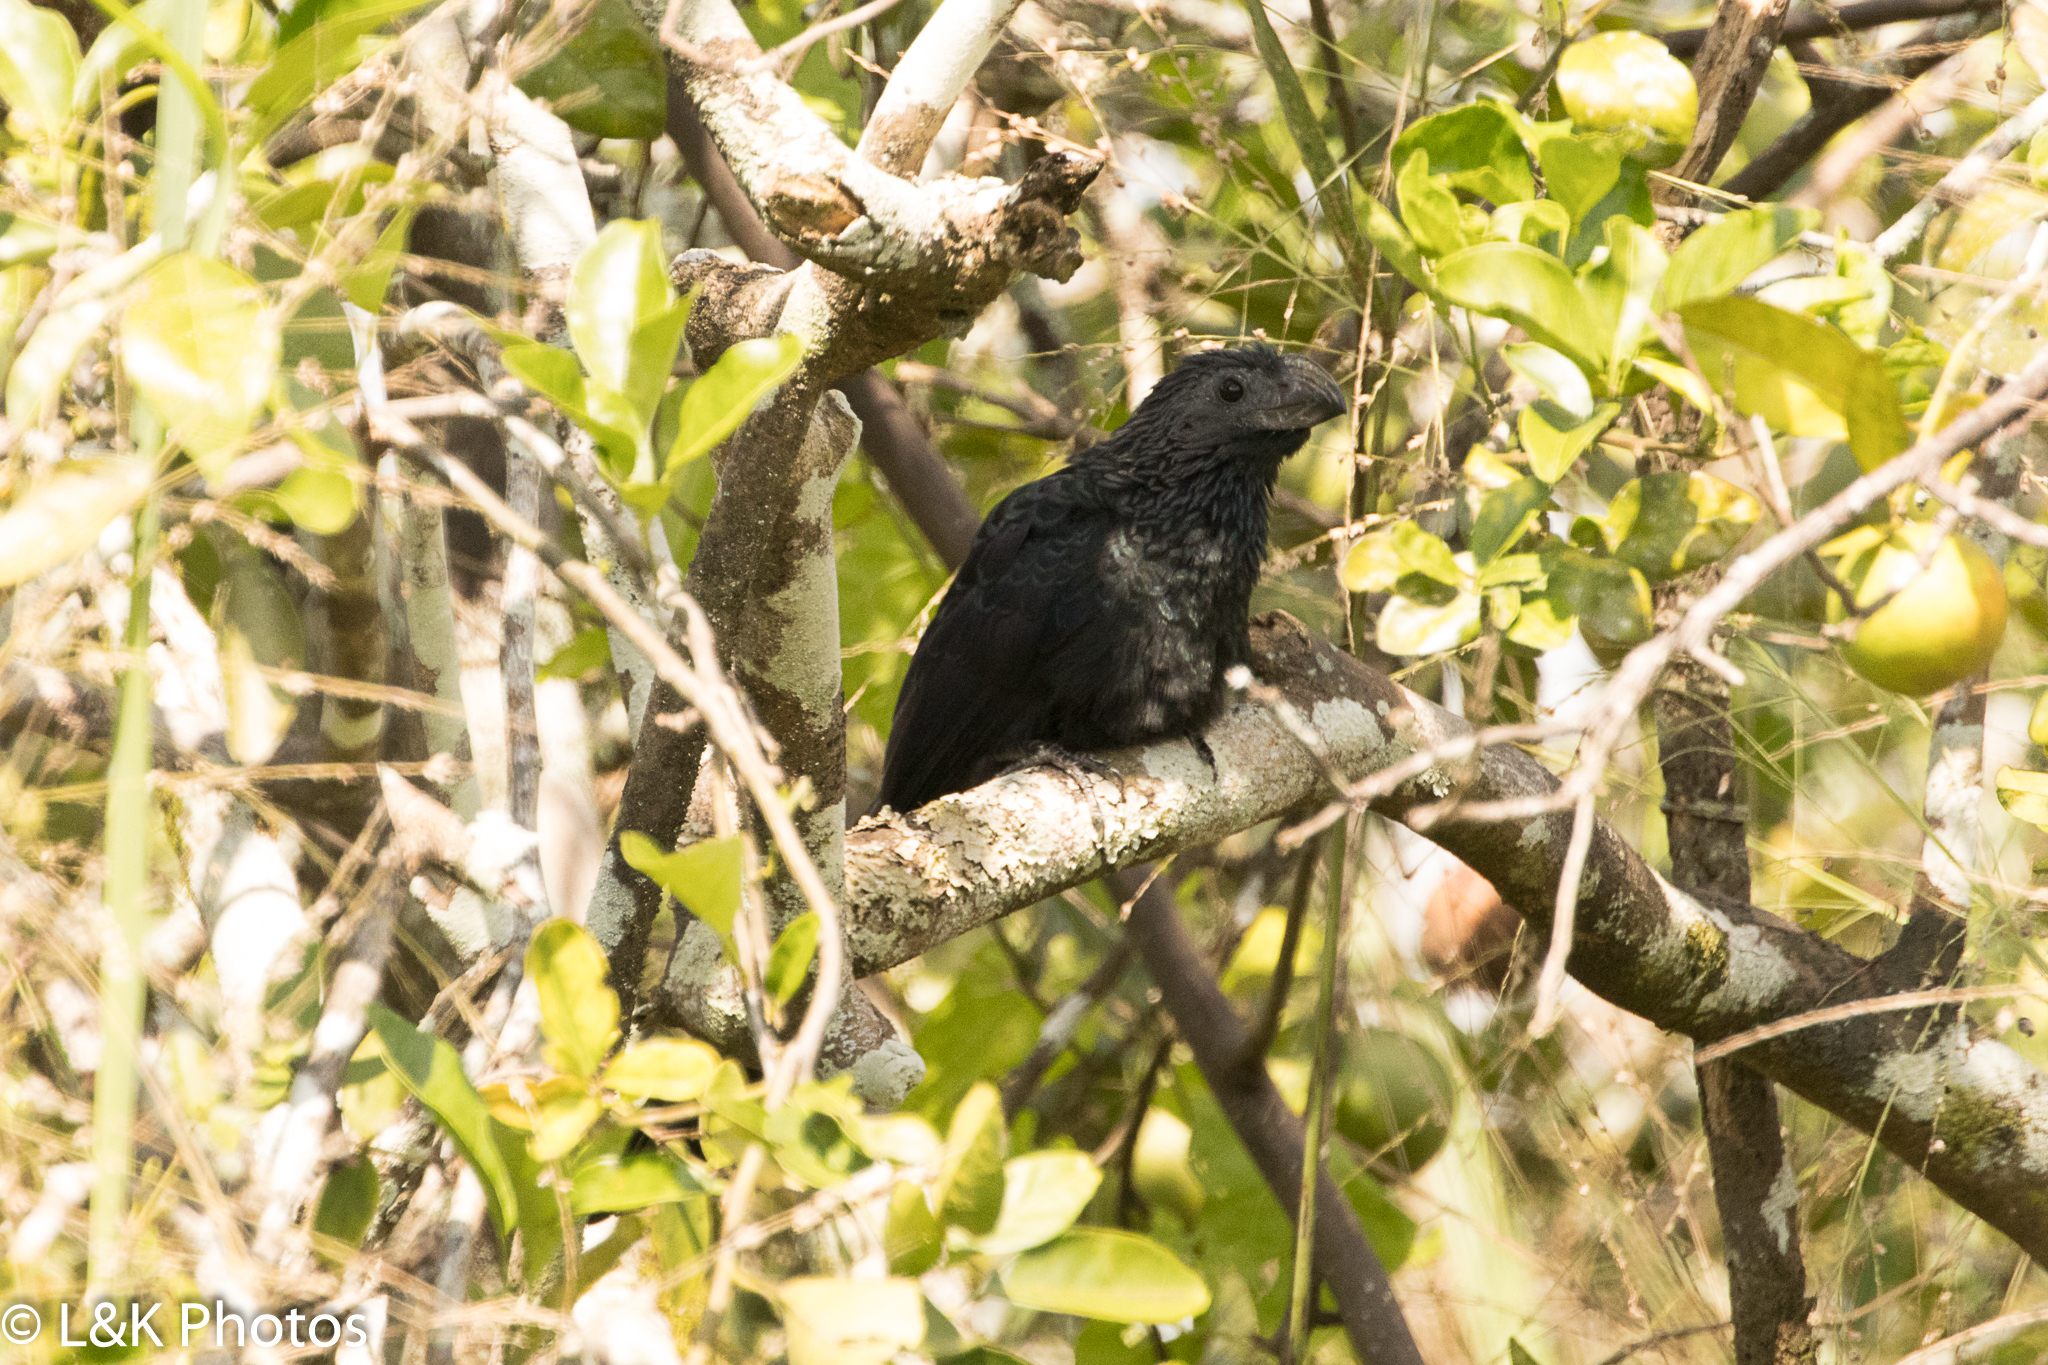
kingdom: Animalia
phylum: Chordata
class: Aves
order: Cuculiformes
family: Cuculidae
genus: Crotophaga
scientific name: Crotophaga sulcirostris
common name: Groove-billed ani
